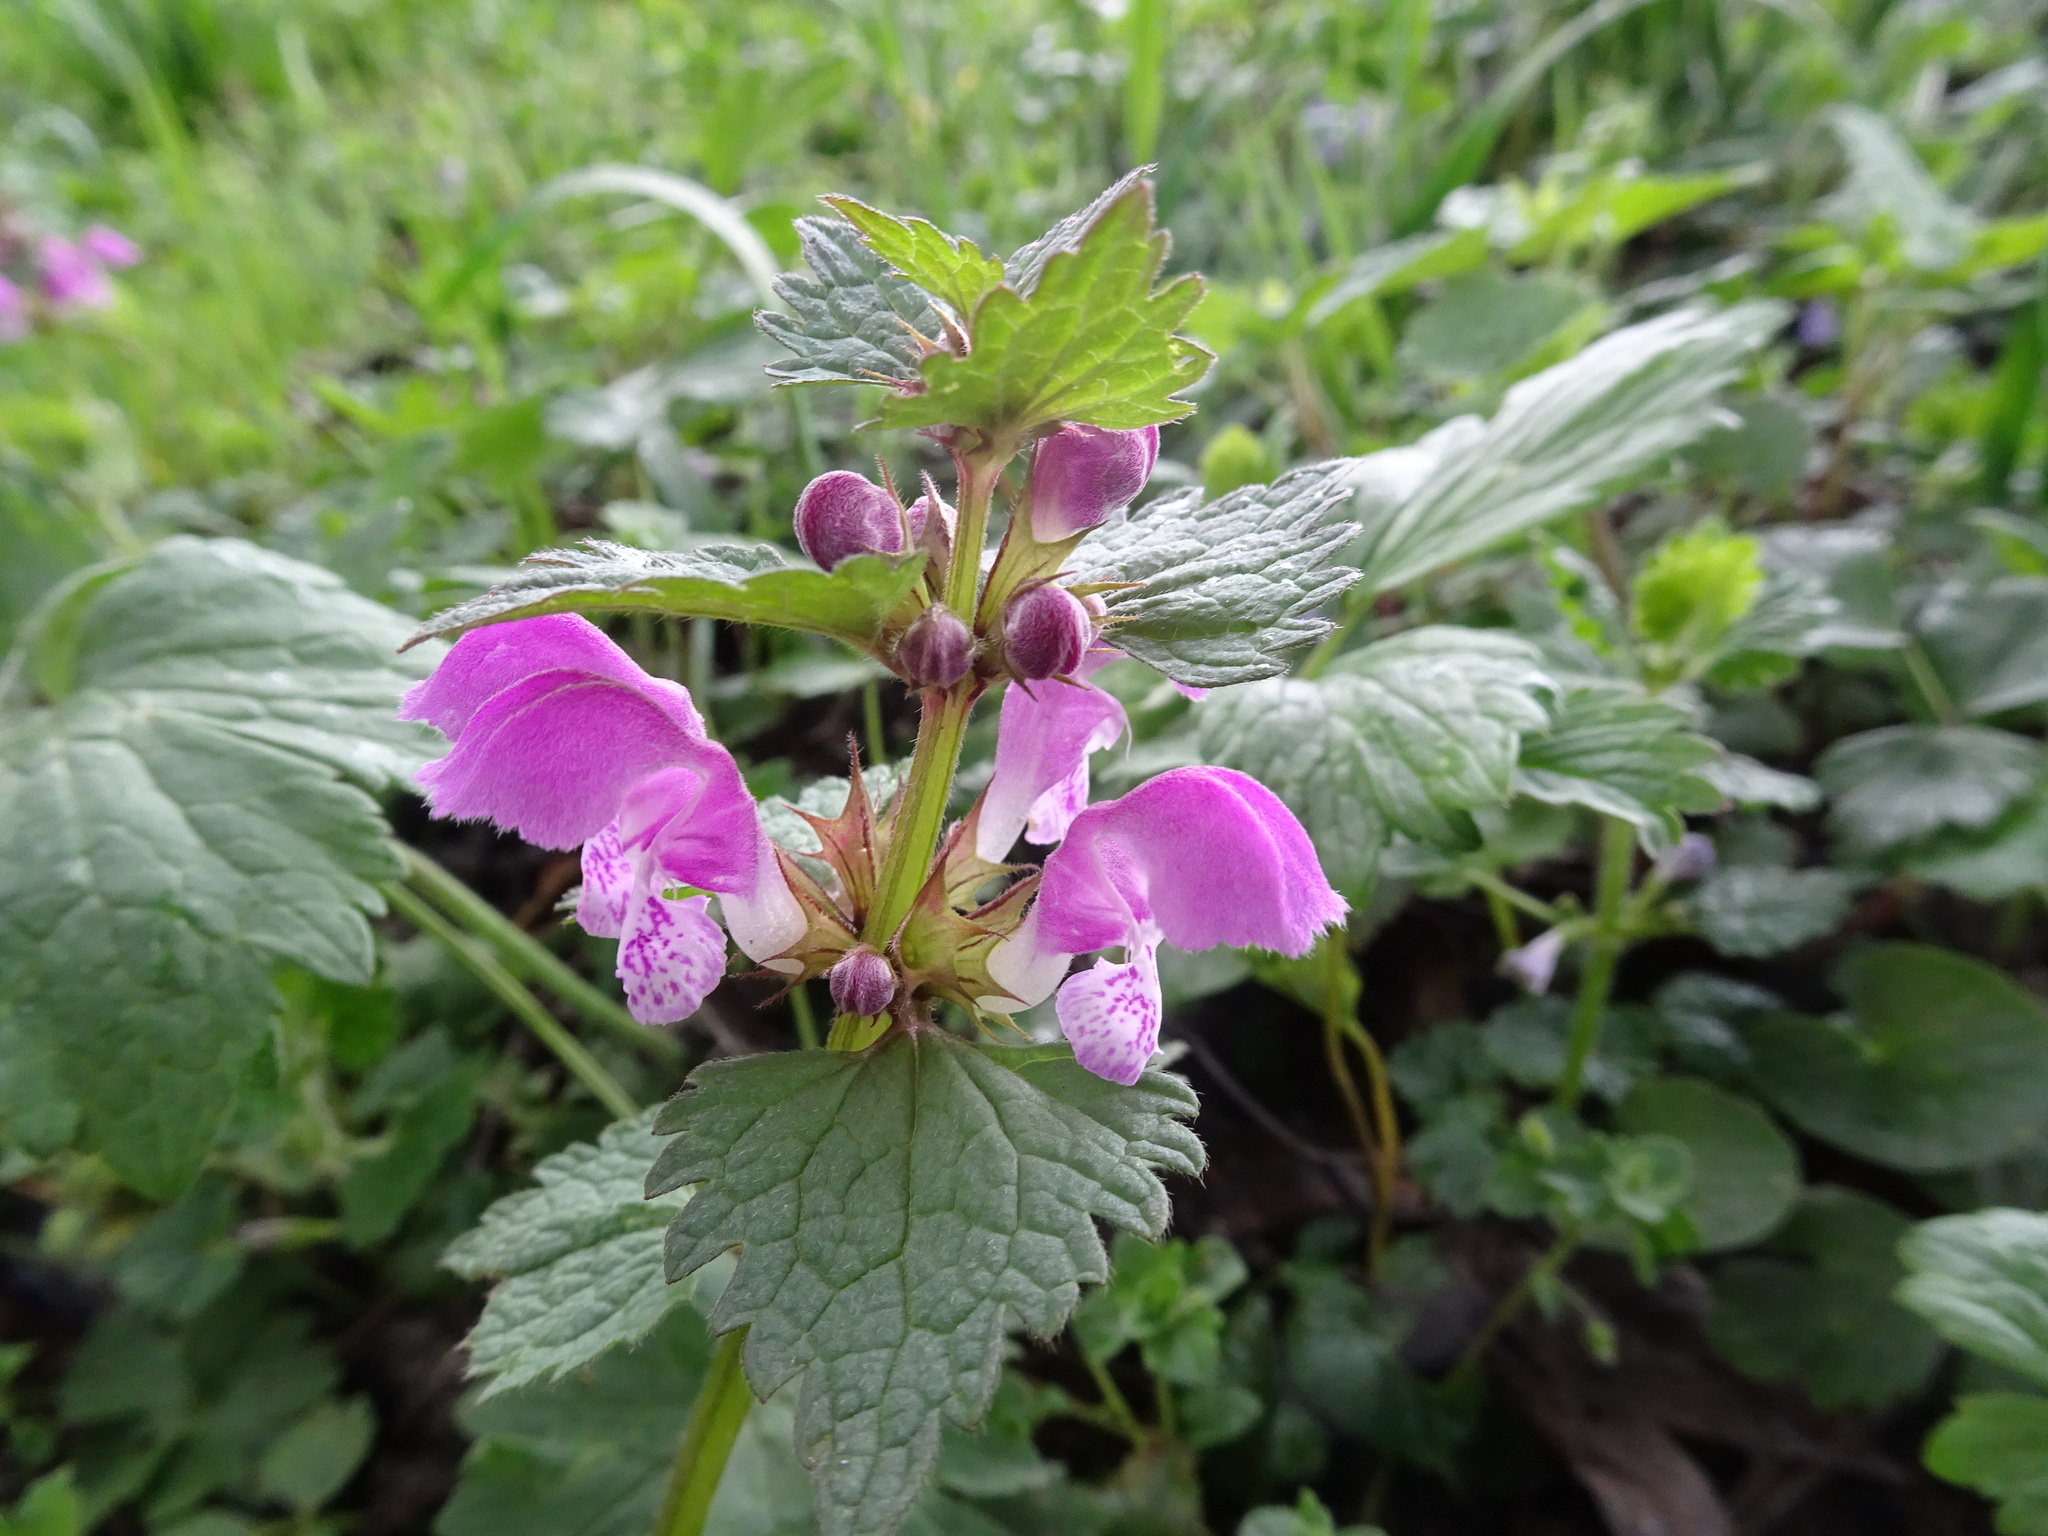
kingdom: Plantae
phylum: Tracheophyta
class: Magnoliopsida
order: Lamiales
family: Lamiaceae
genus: Lamium
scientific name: Lamium maculatum
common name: Spotted dead-nettle
